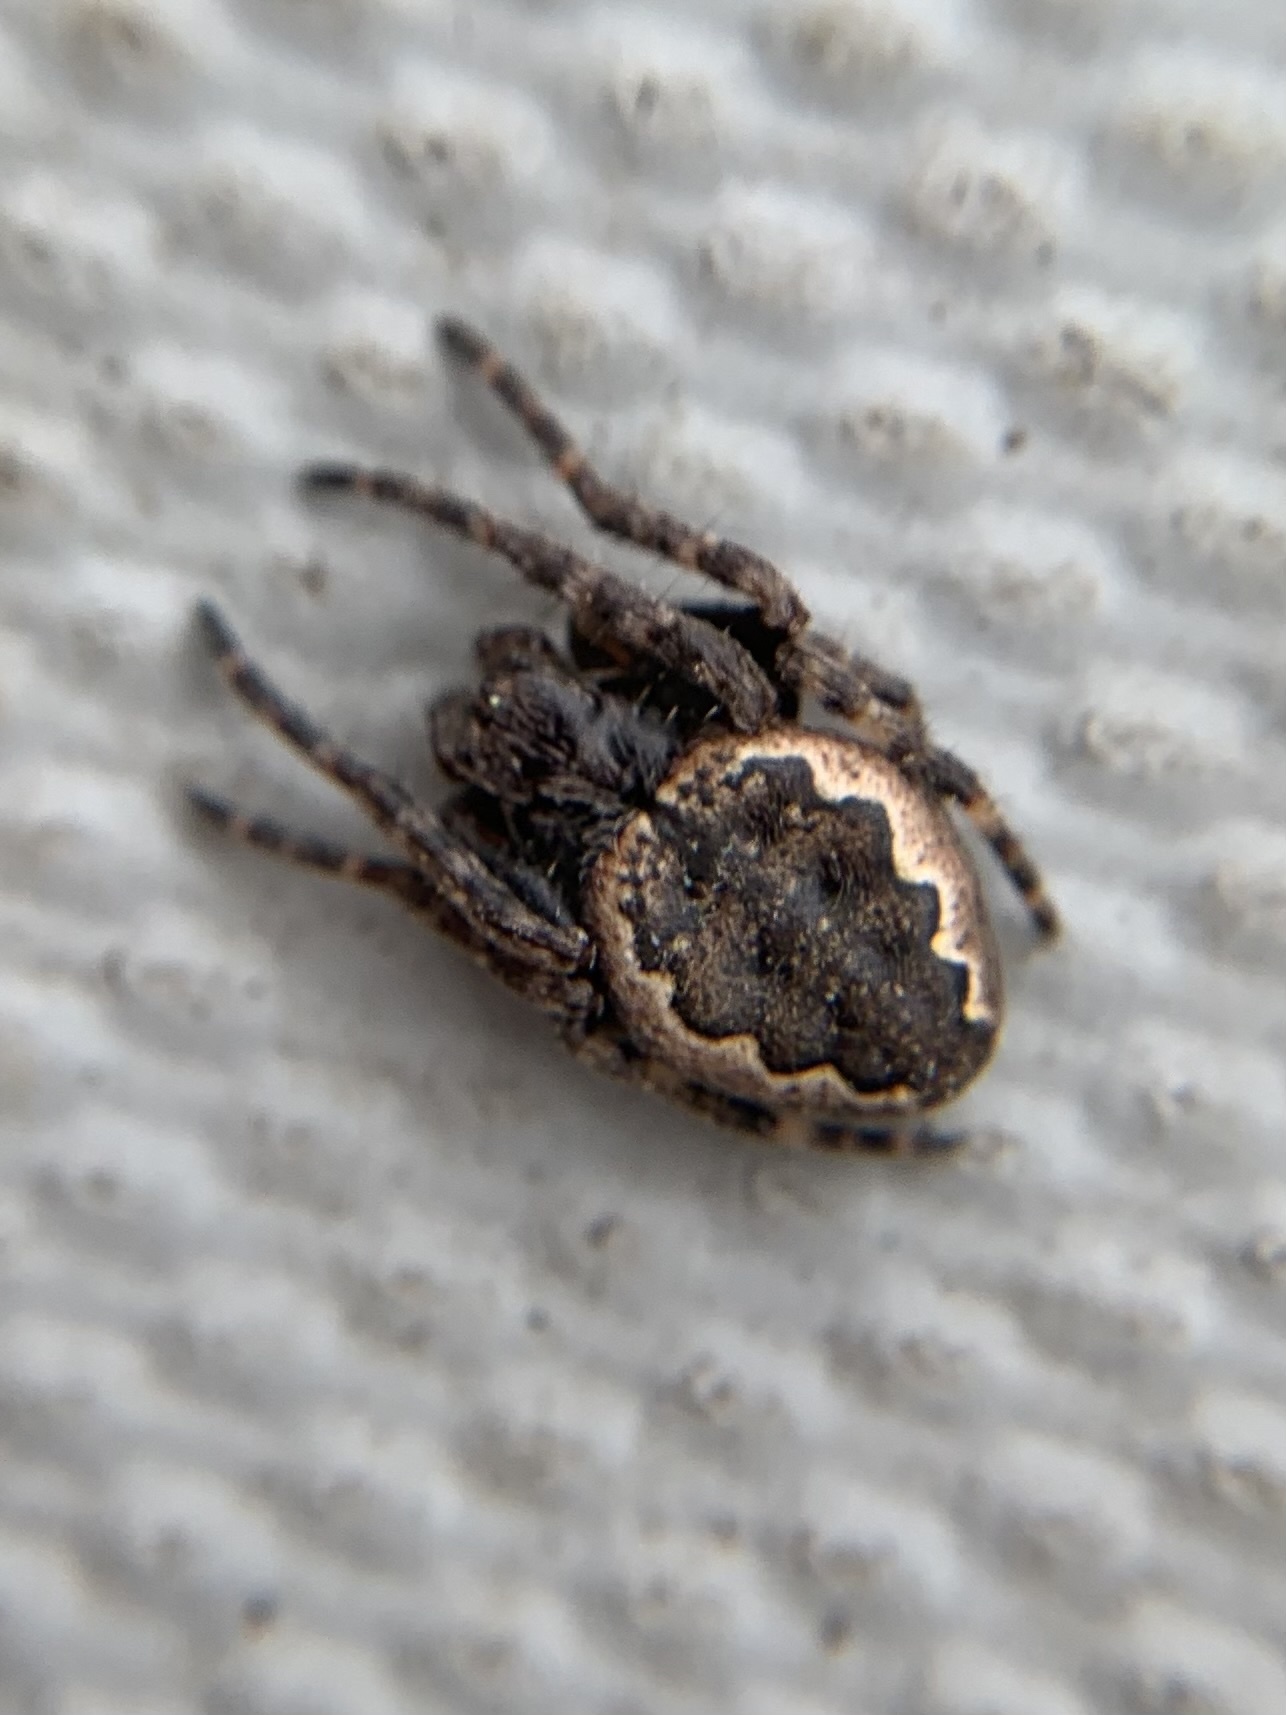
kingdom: Animalia
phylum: Arthropoda
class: Arachnida
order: Araneae
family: Araneidae
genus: Nuctenea
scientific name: Nuctenea umbratica
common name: Toad spider
